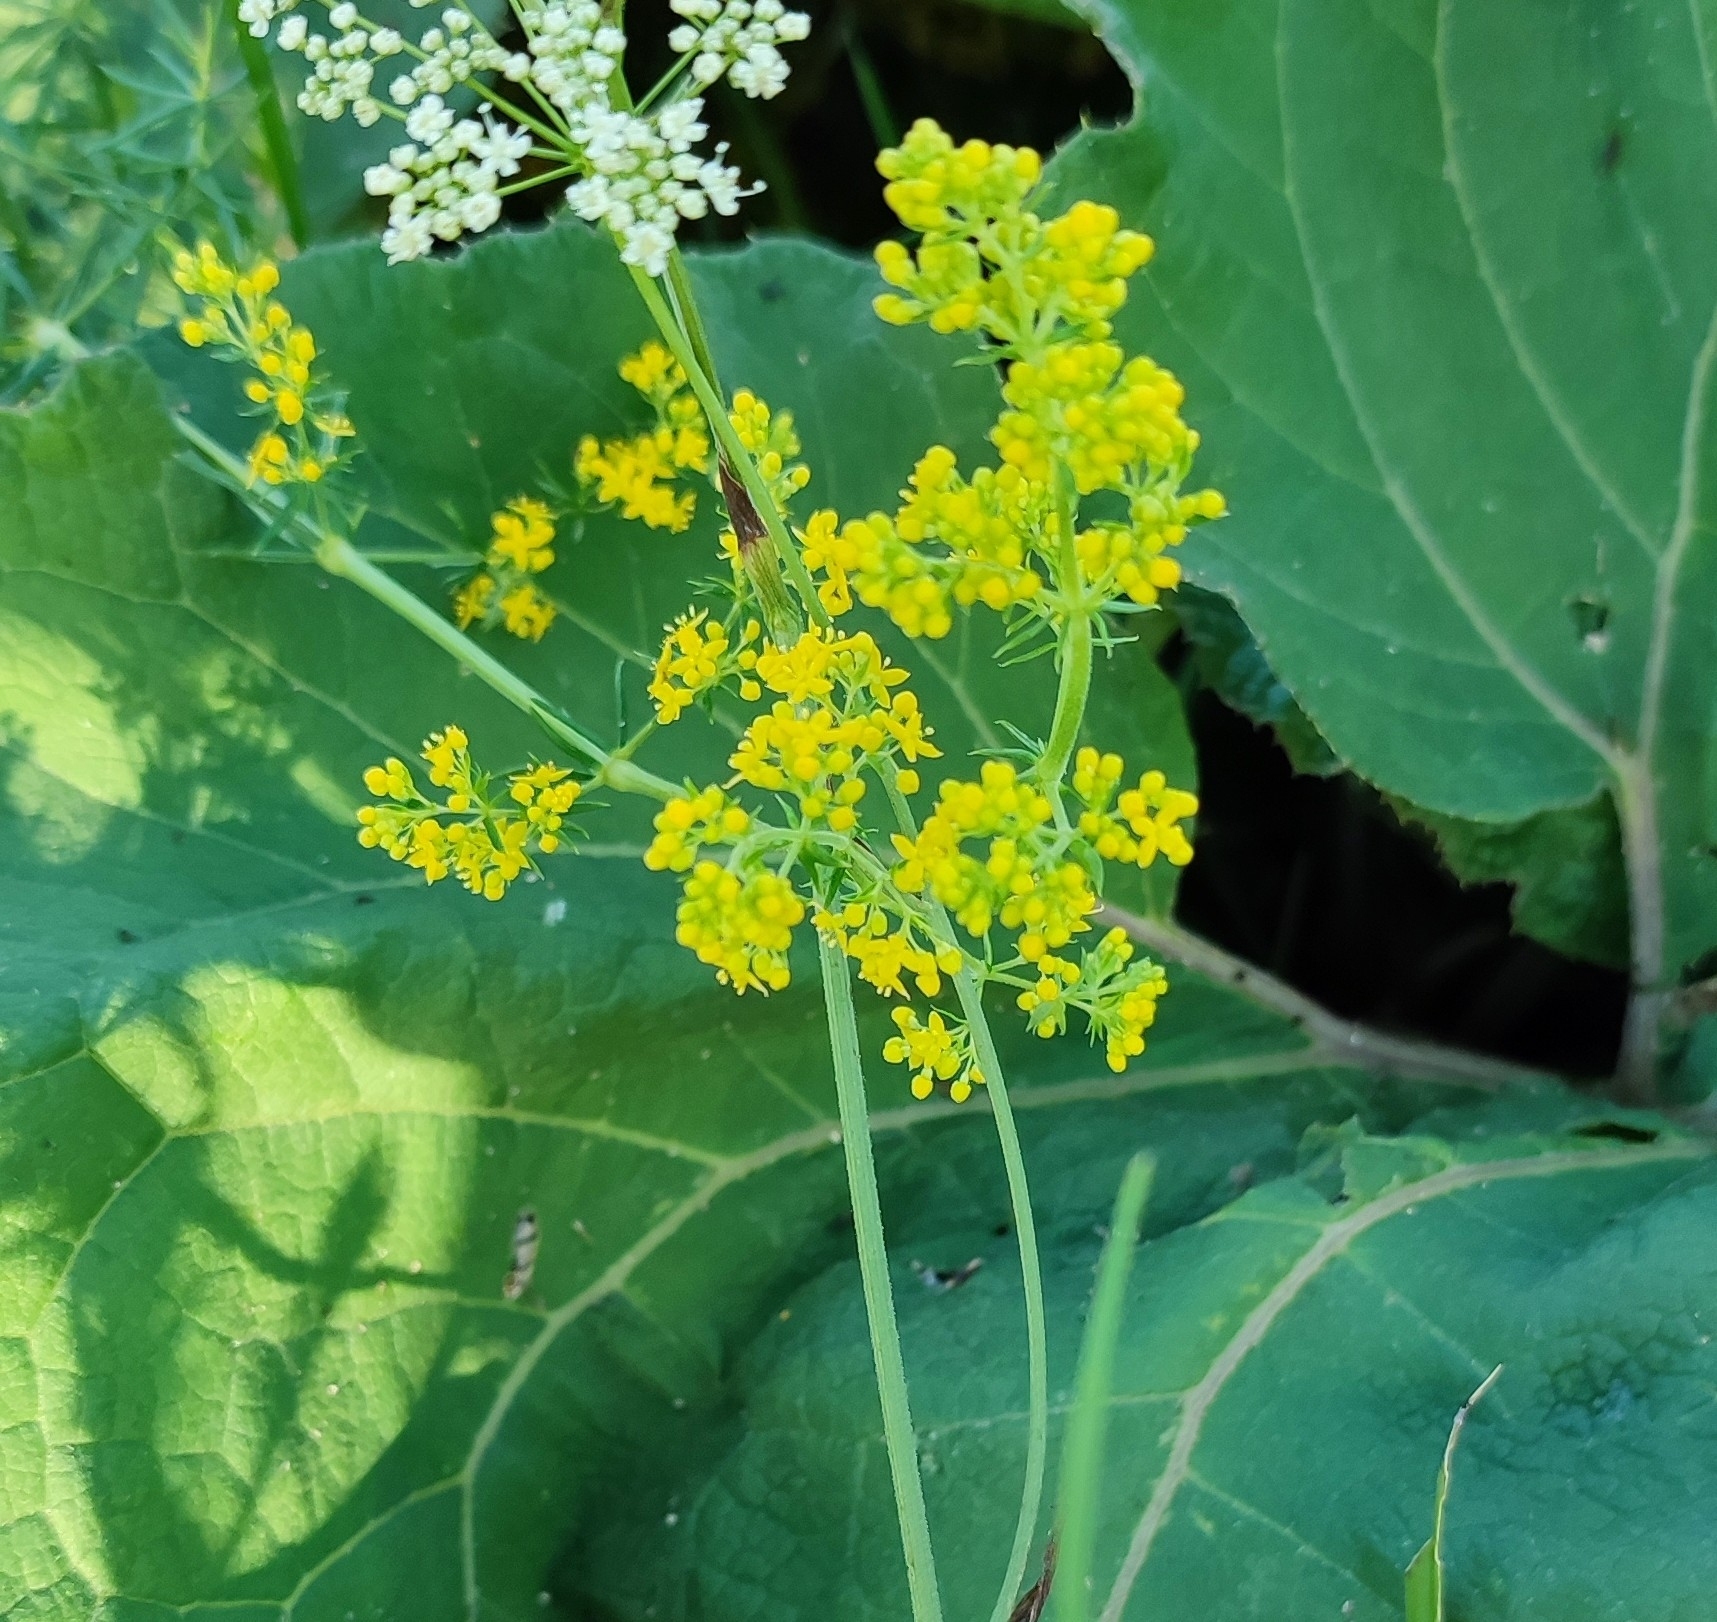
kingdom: Plantae
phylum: Tracheophyta
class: Magnoliopsida
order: Gentianales
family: Rubiaceae
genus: Galium
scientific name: Galium verum
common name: Lady's bedstraw
